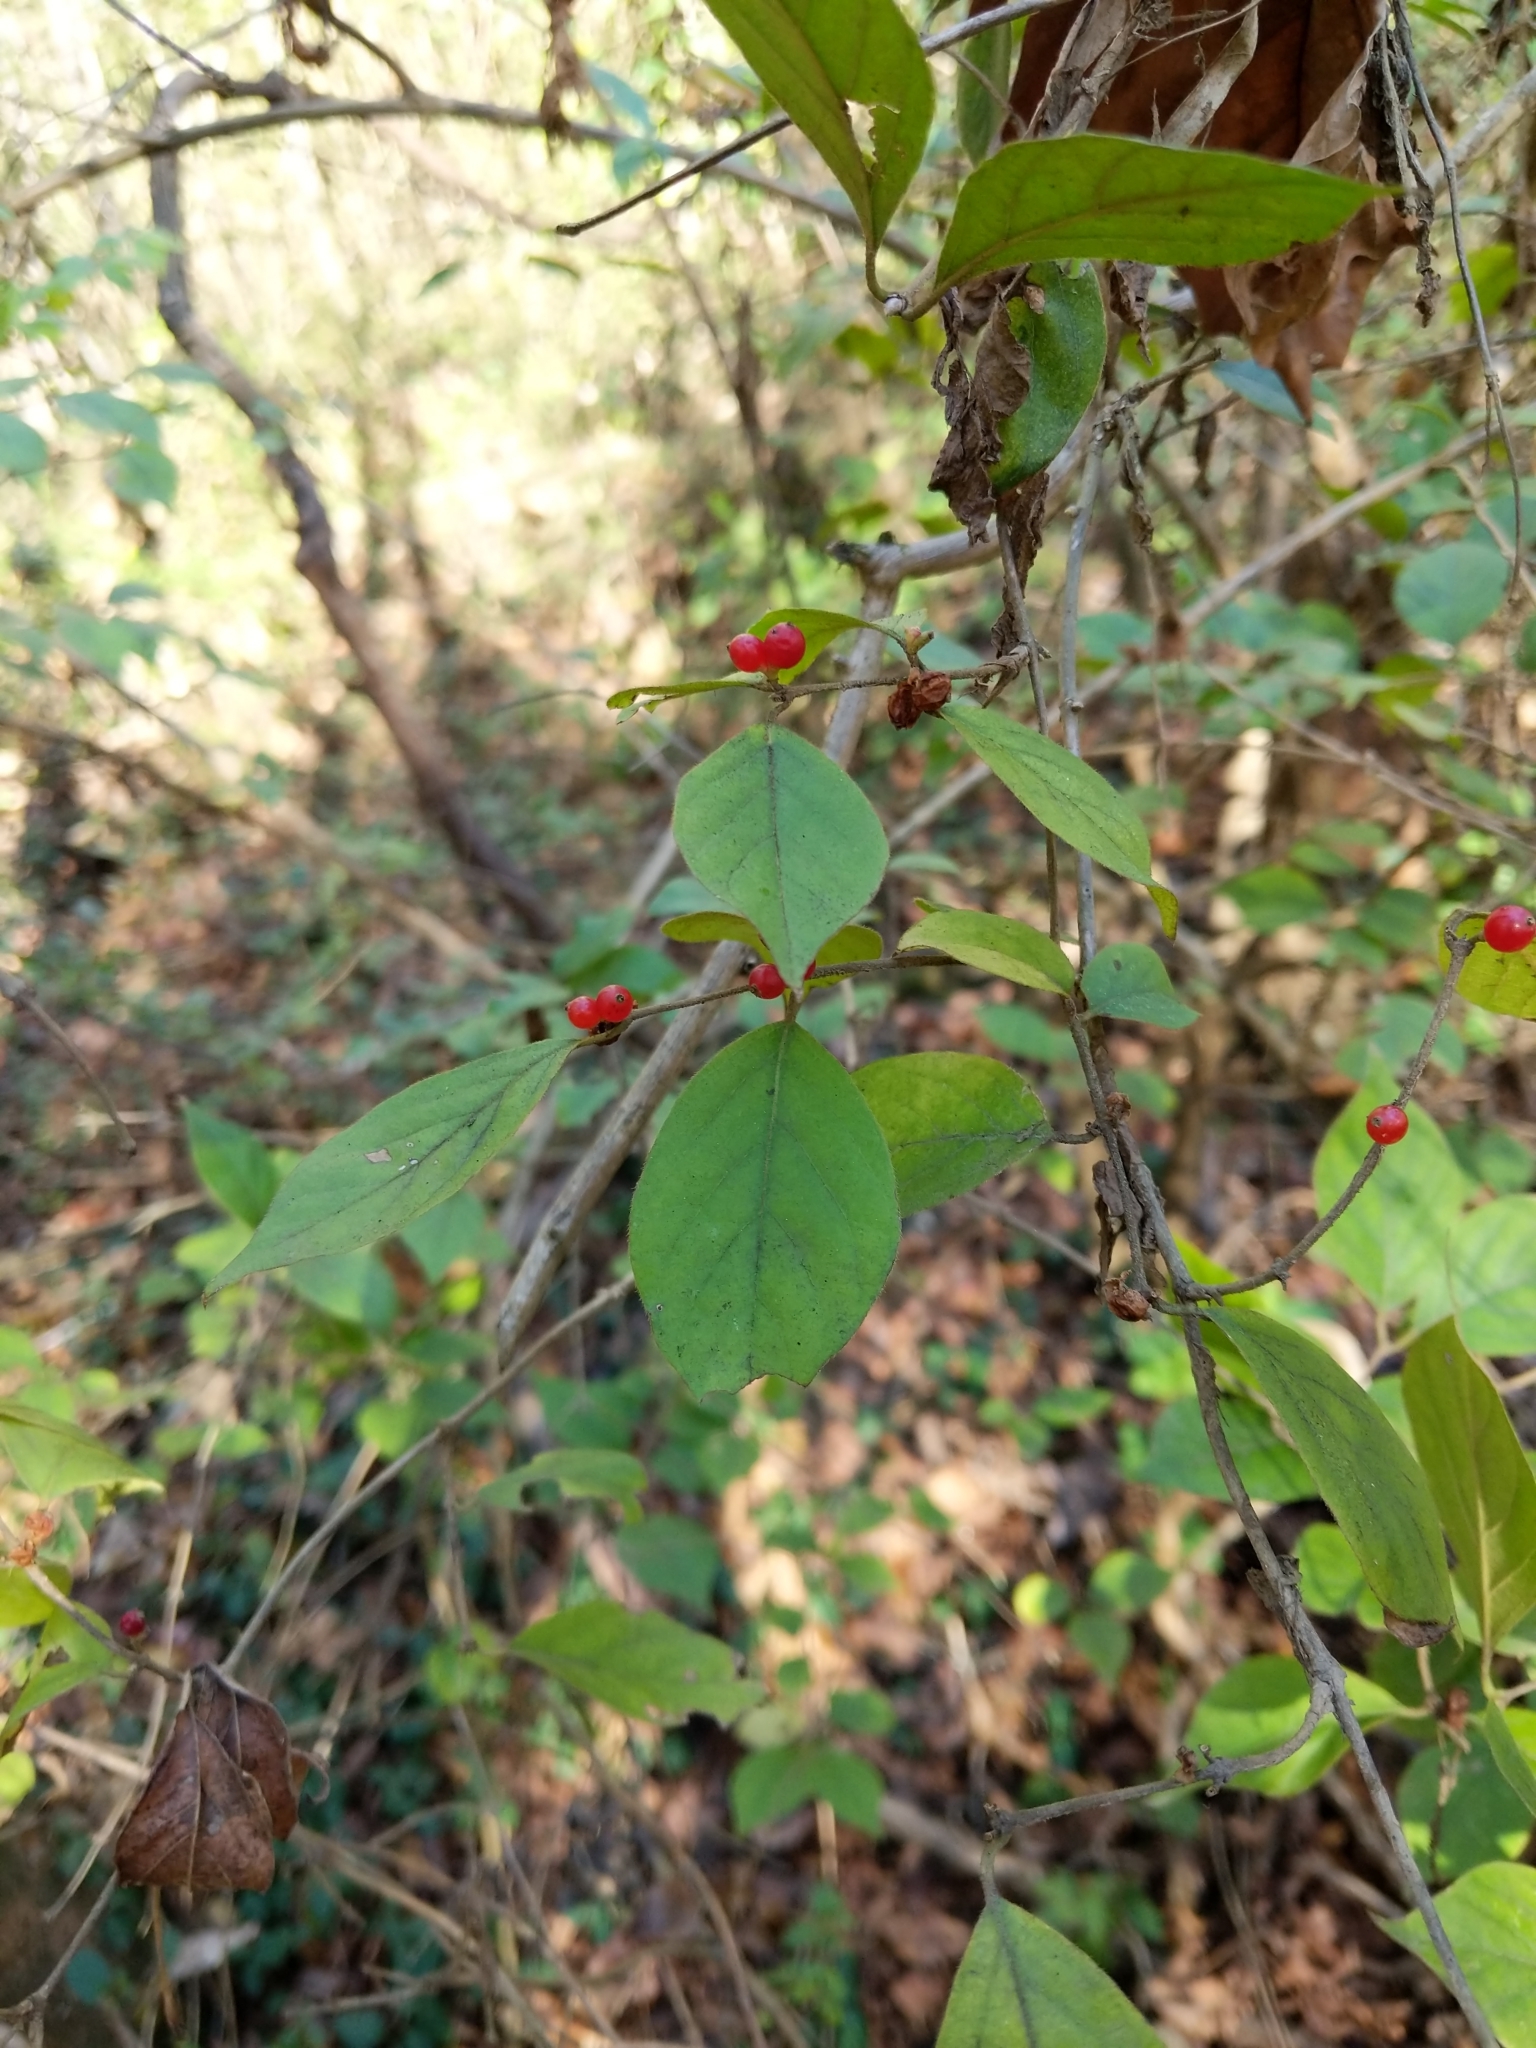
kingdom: Plantae
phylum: Tracheophyta
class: Magnoliopsida
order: Dipsacales
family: Caprifoliaceae
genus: Lonicera
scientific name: Lonicera maackii
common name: Amur honeysuckle
